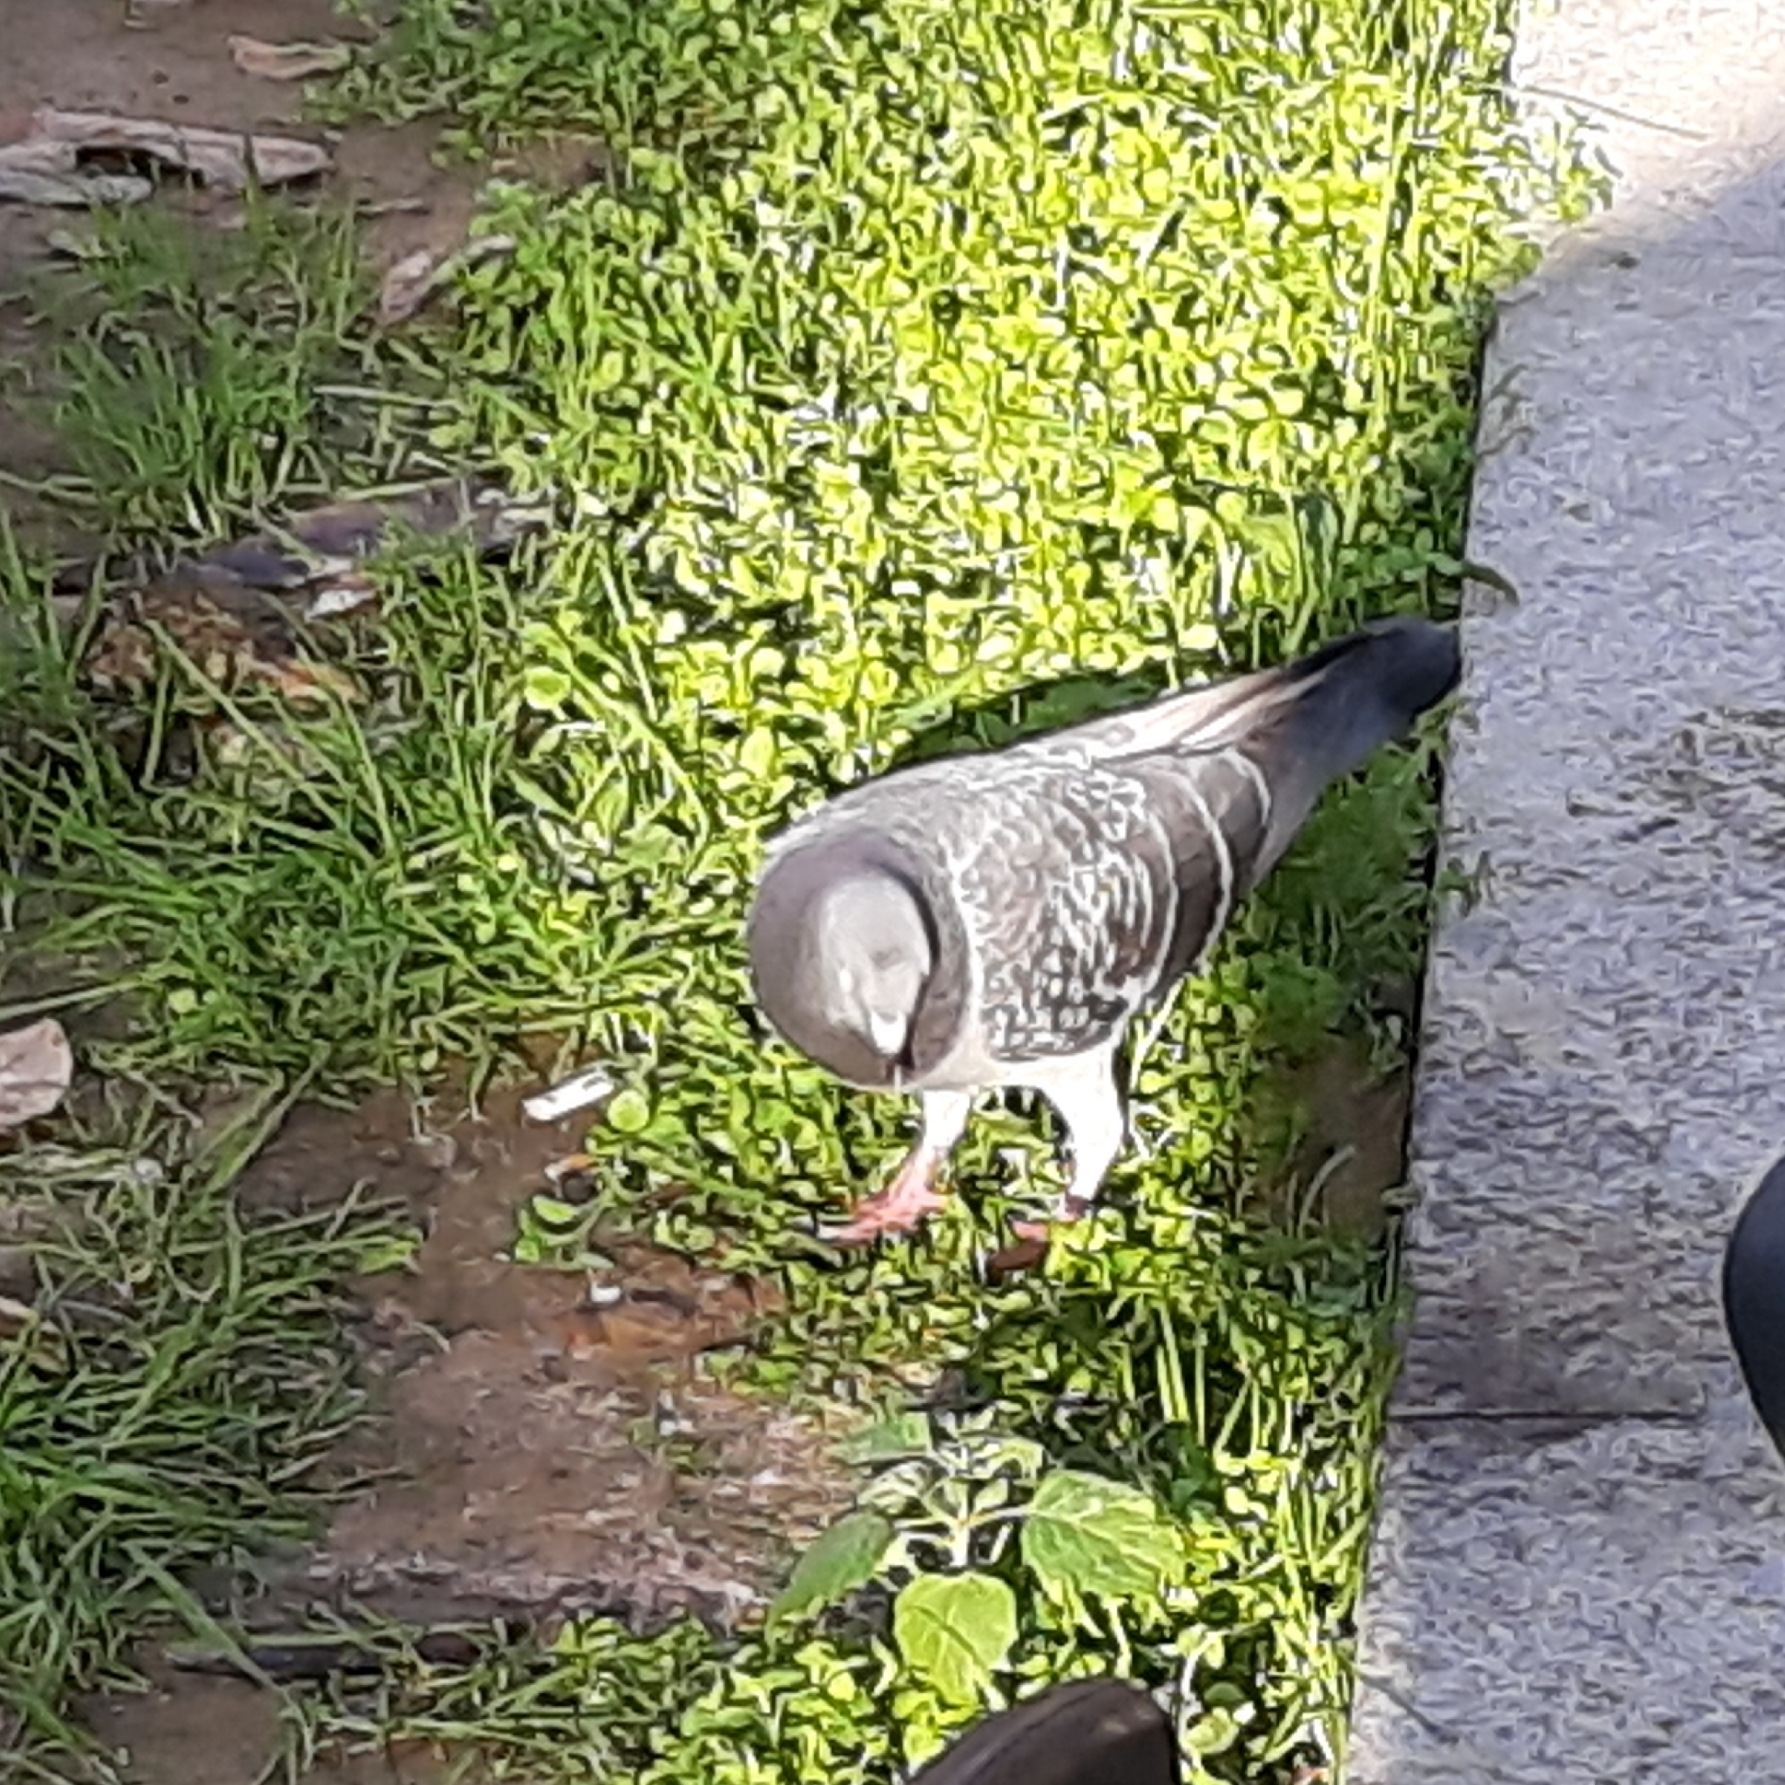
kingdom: Animalia
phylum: Chordata
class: Aves
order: Columbiformes
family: Columbidae
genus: Columba
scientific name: Columba livia
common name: Rock pigeon
